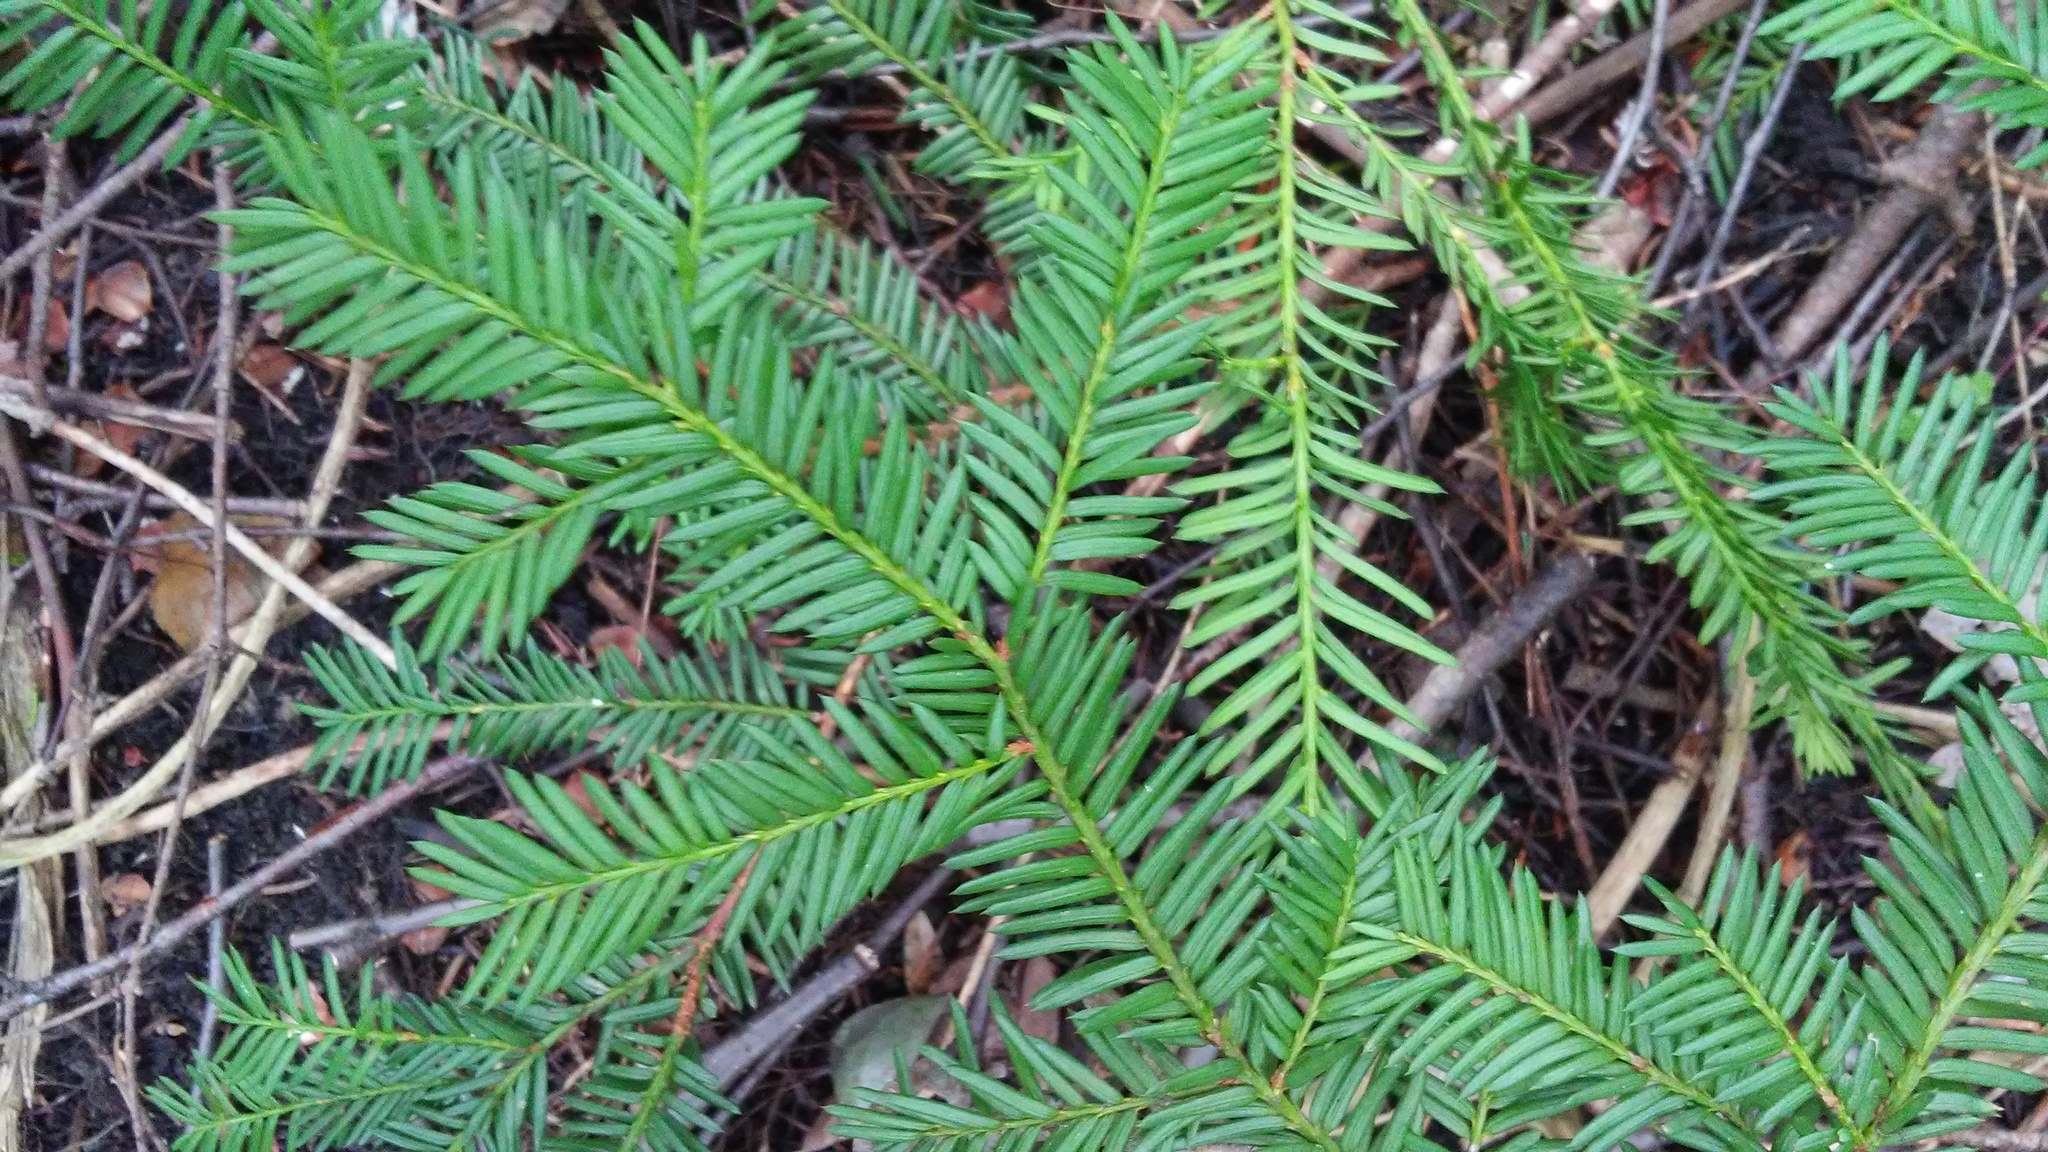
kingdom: Plantae
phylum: Tracheophyta
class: Pinopsida
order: Pinales
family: Taxaceae
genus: Taxus
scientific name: Taxus canadensis
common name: American yew
